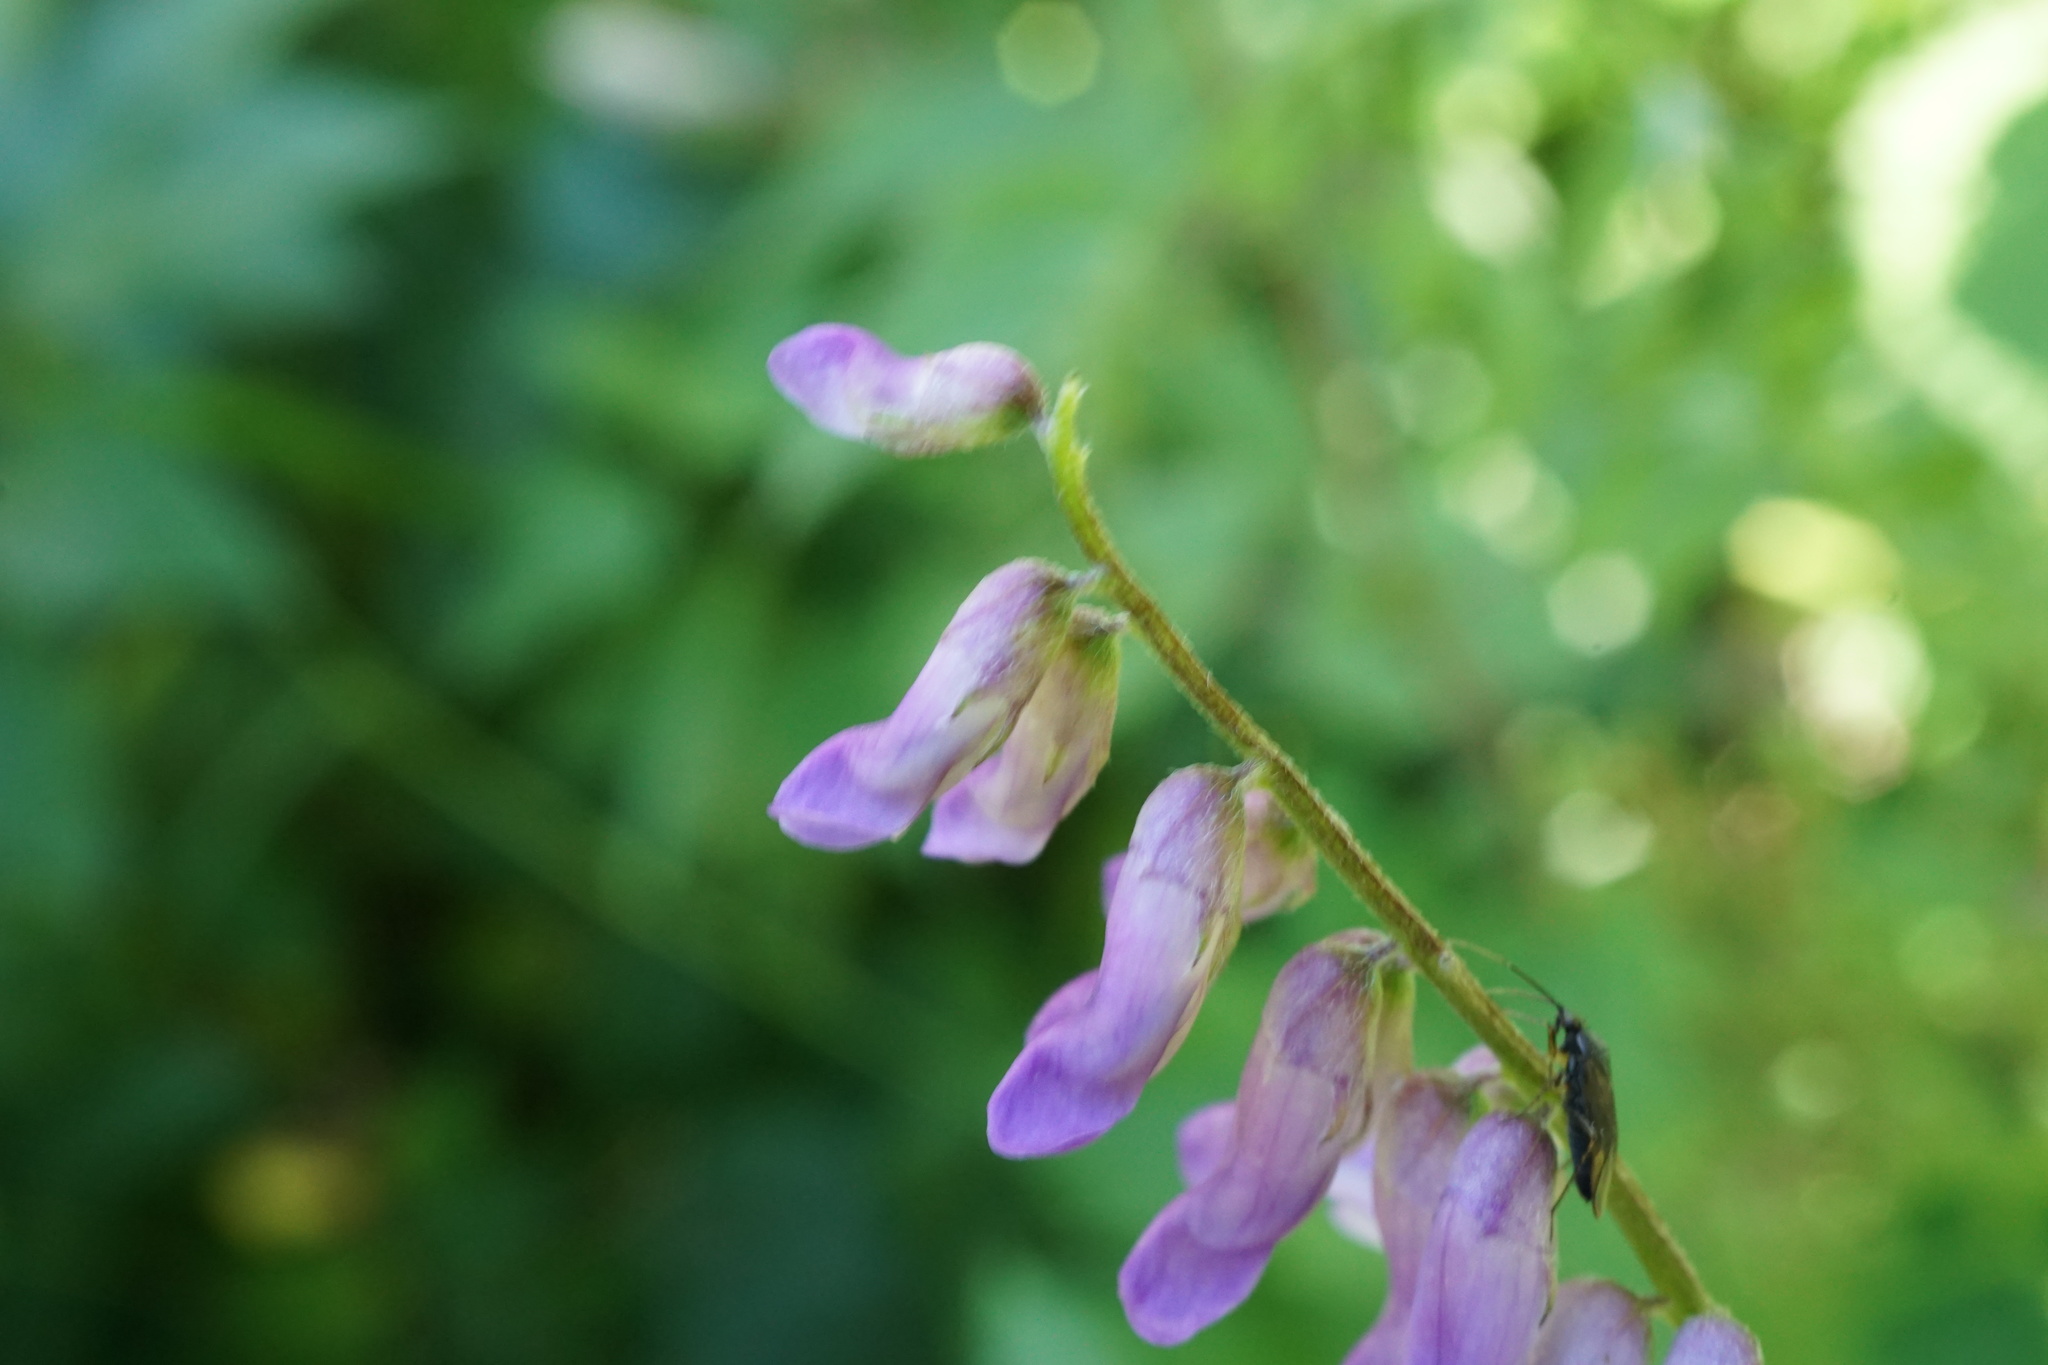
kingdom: Plantae
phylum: Tracheophyta
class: Magnoliopsida
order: Fabales
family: Fabaceae
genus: Vicia
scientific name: Vicia cracca
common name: Bird vetch
